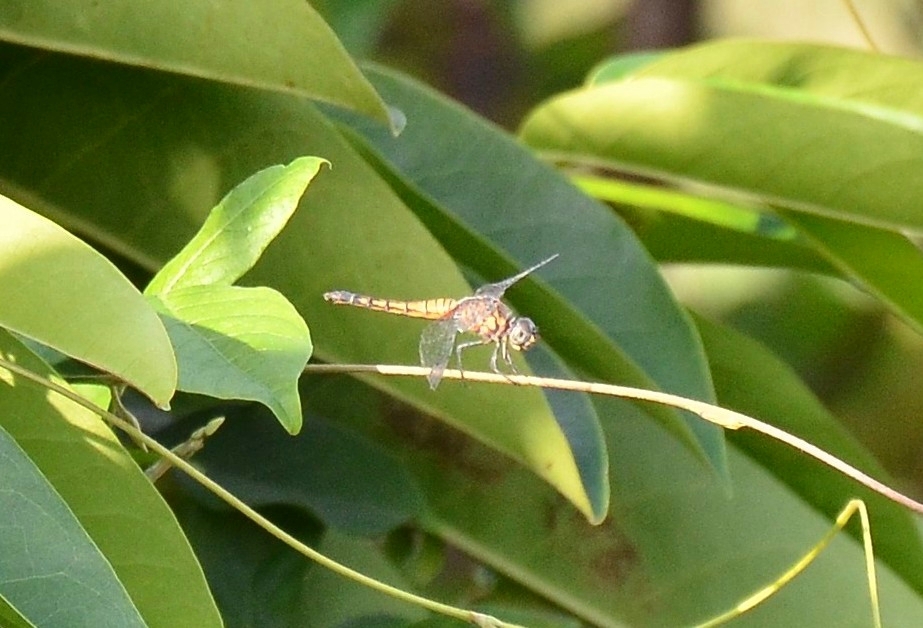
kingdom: Animalia
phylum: Arthropoda
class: Insecta
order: Odonata
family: Libellulidae
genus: Brachydiplax
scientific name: Brachydiplax chalybea
